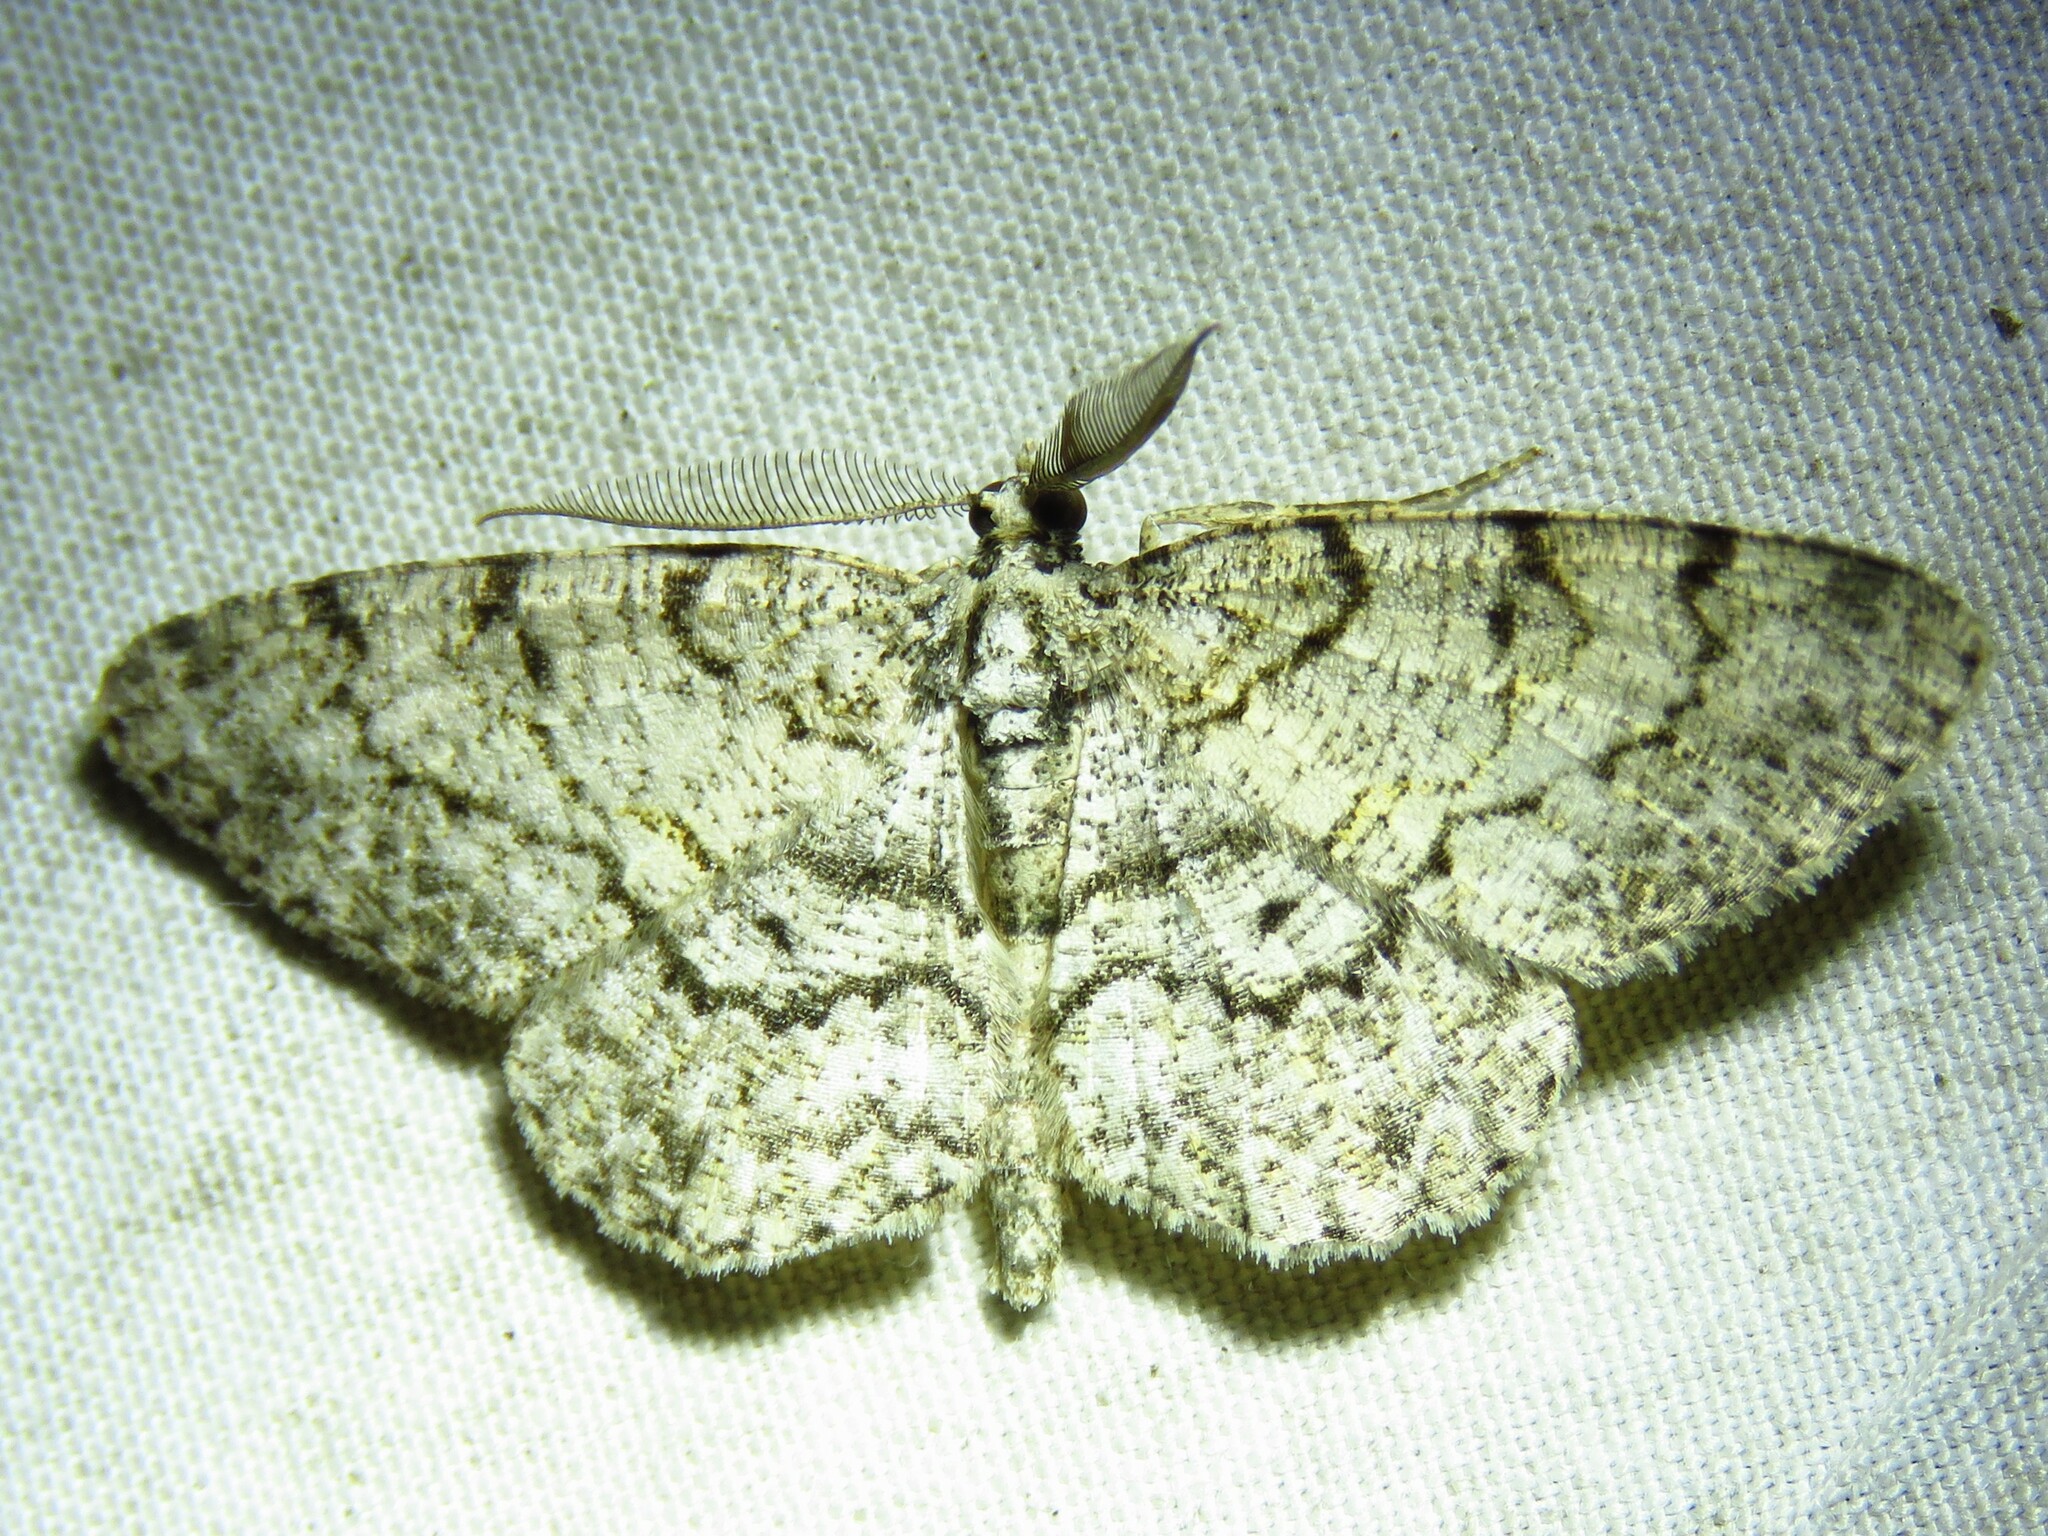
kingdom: Animalia
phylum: Arthropoda
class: Insecta
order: Lepidoptera
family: Geometridae
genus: Protoboarmia
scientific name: Protoboarmia porcelaria
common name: Porcelain gray
